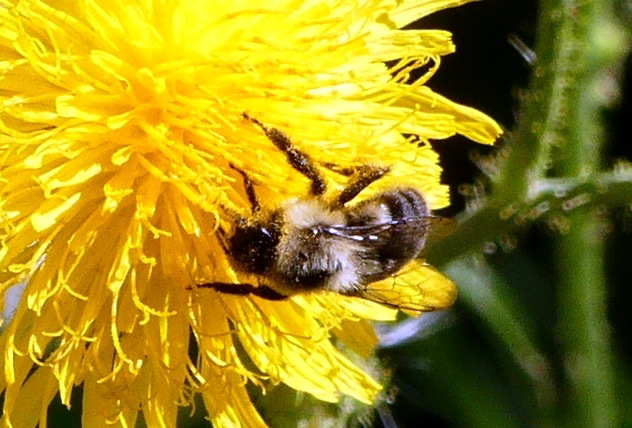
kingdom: Animalia
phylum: Arthropoda
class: Insecta
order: Hymenoptera
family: Apidae
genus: Bombus
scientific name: Bombus impatiens
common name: Common eastern bumble bee
